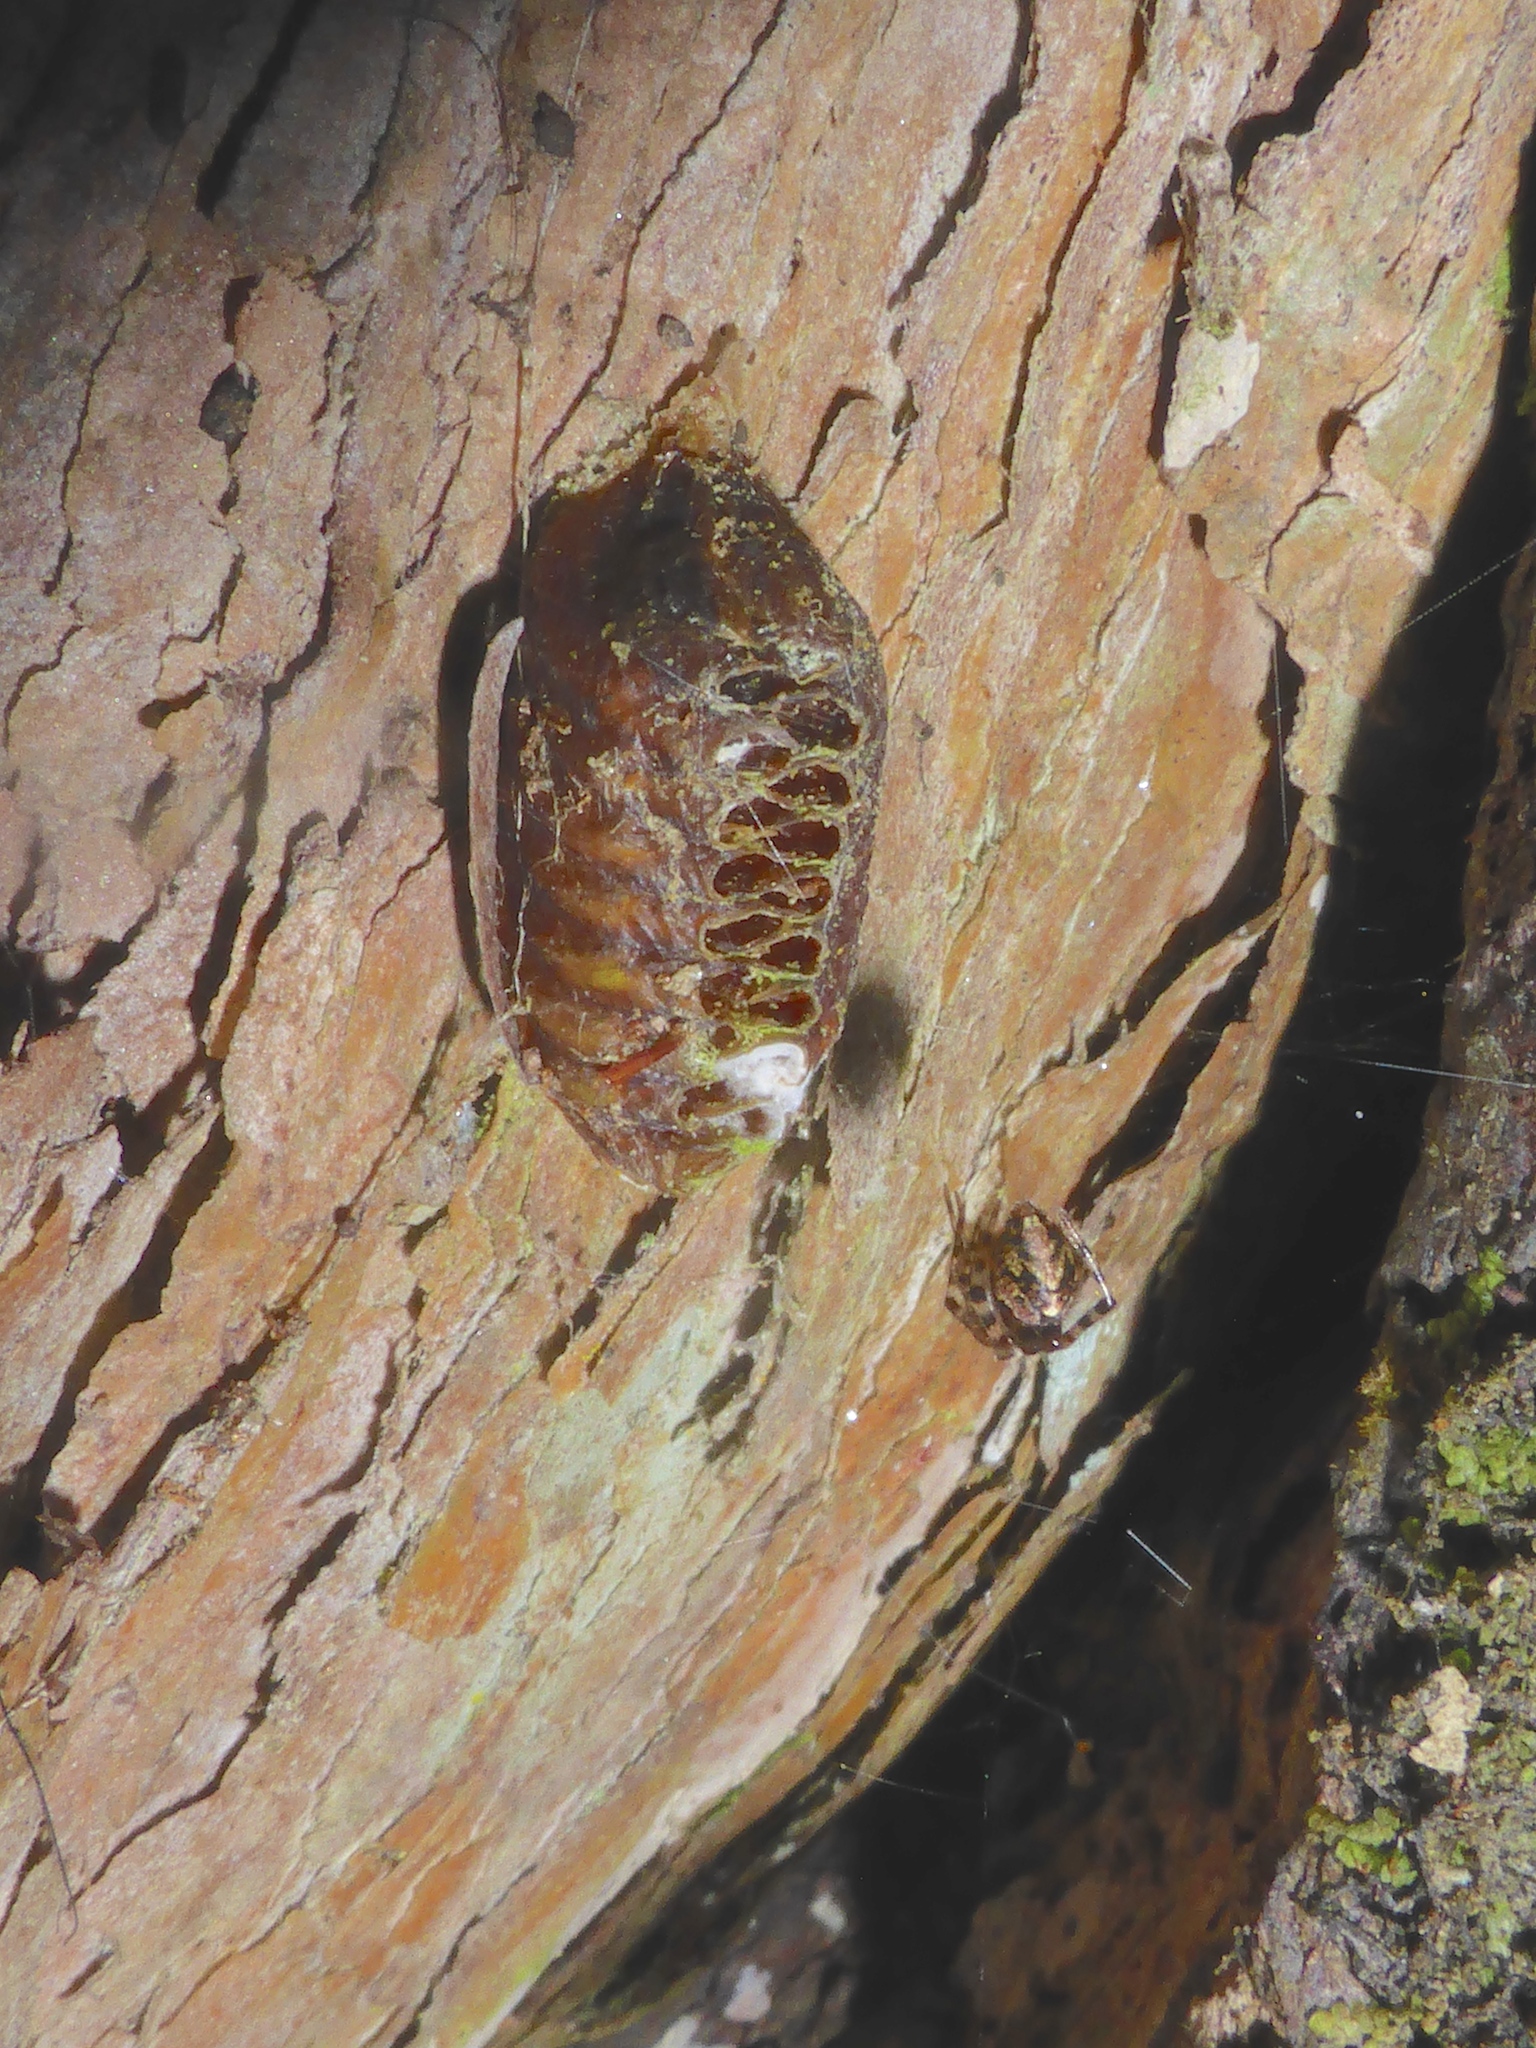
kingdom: Animalia
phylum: Arthropoda
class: Insecta
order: Mantodea
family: Mantidae
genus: Orthodera
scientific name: Orthodera novaezealandiae
